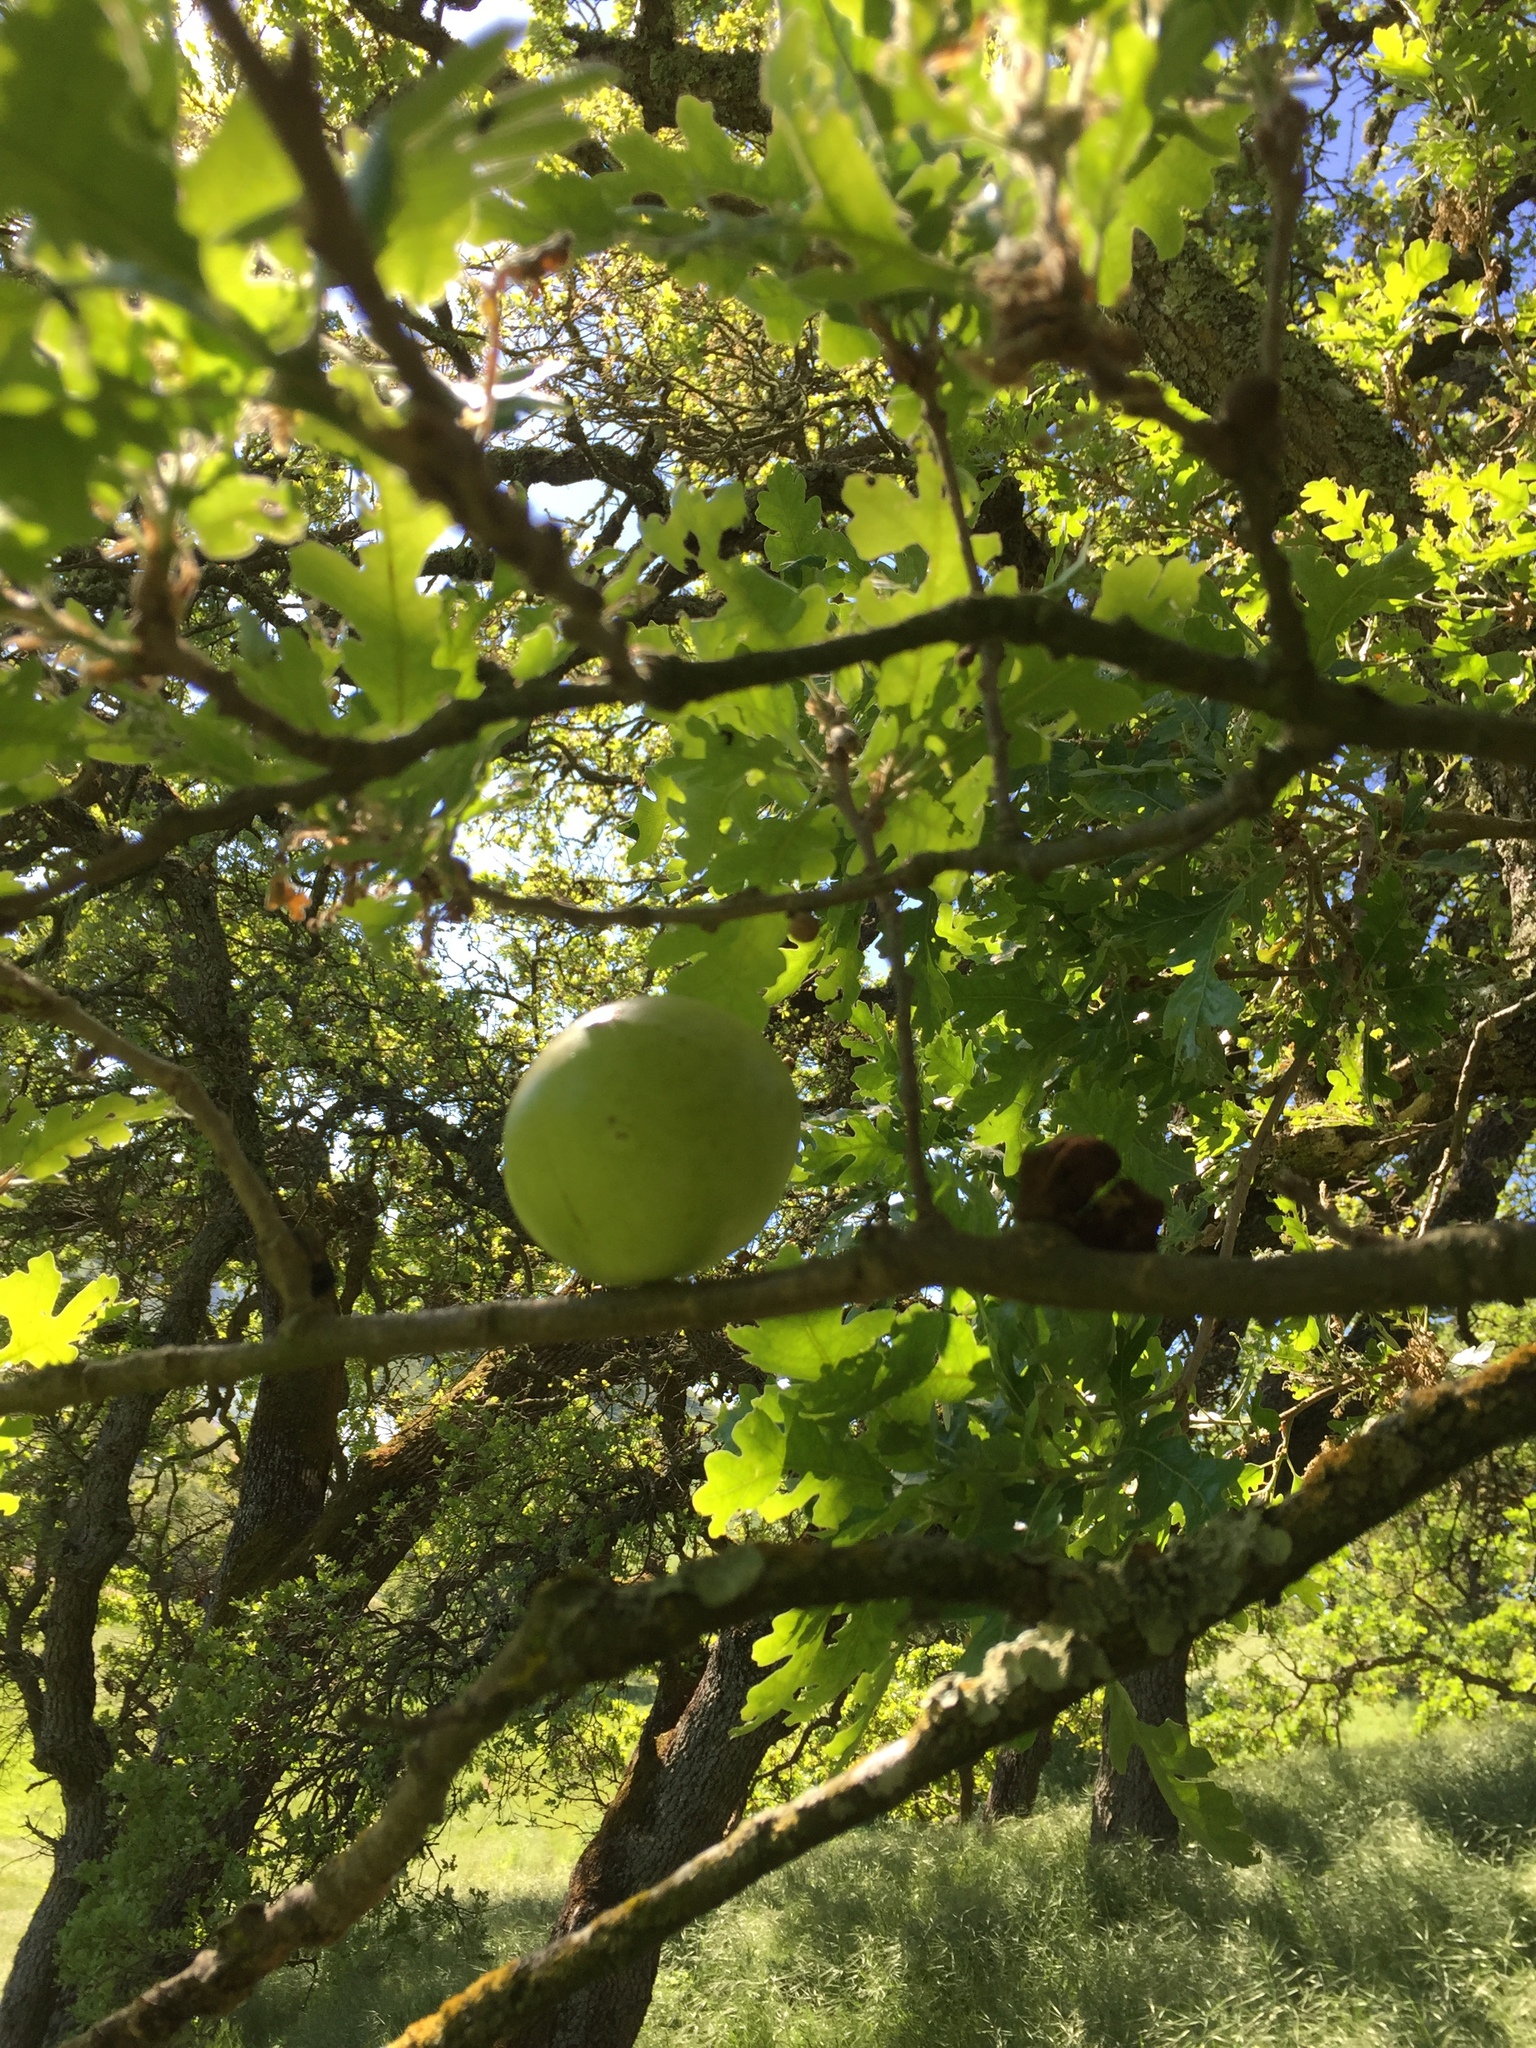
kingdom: Animalia
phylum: Arthropoda
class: Insecta
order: Hymenoptera
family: Cynipidae
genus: Andricus
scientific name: Andricus quercuscalifornicus
